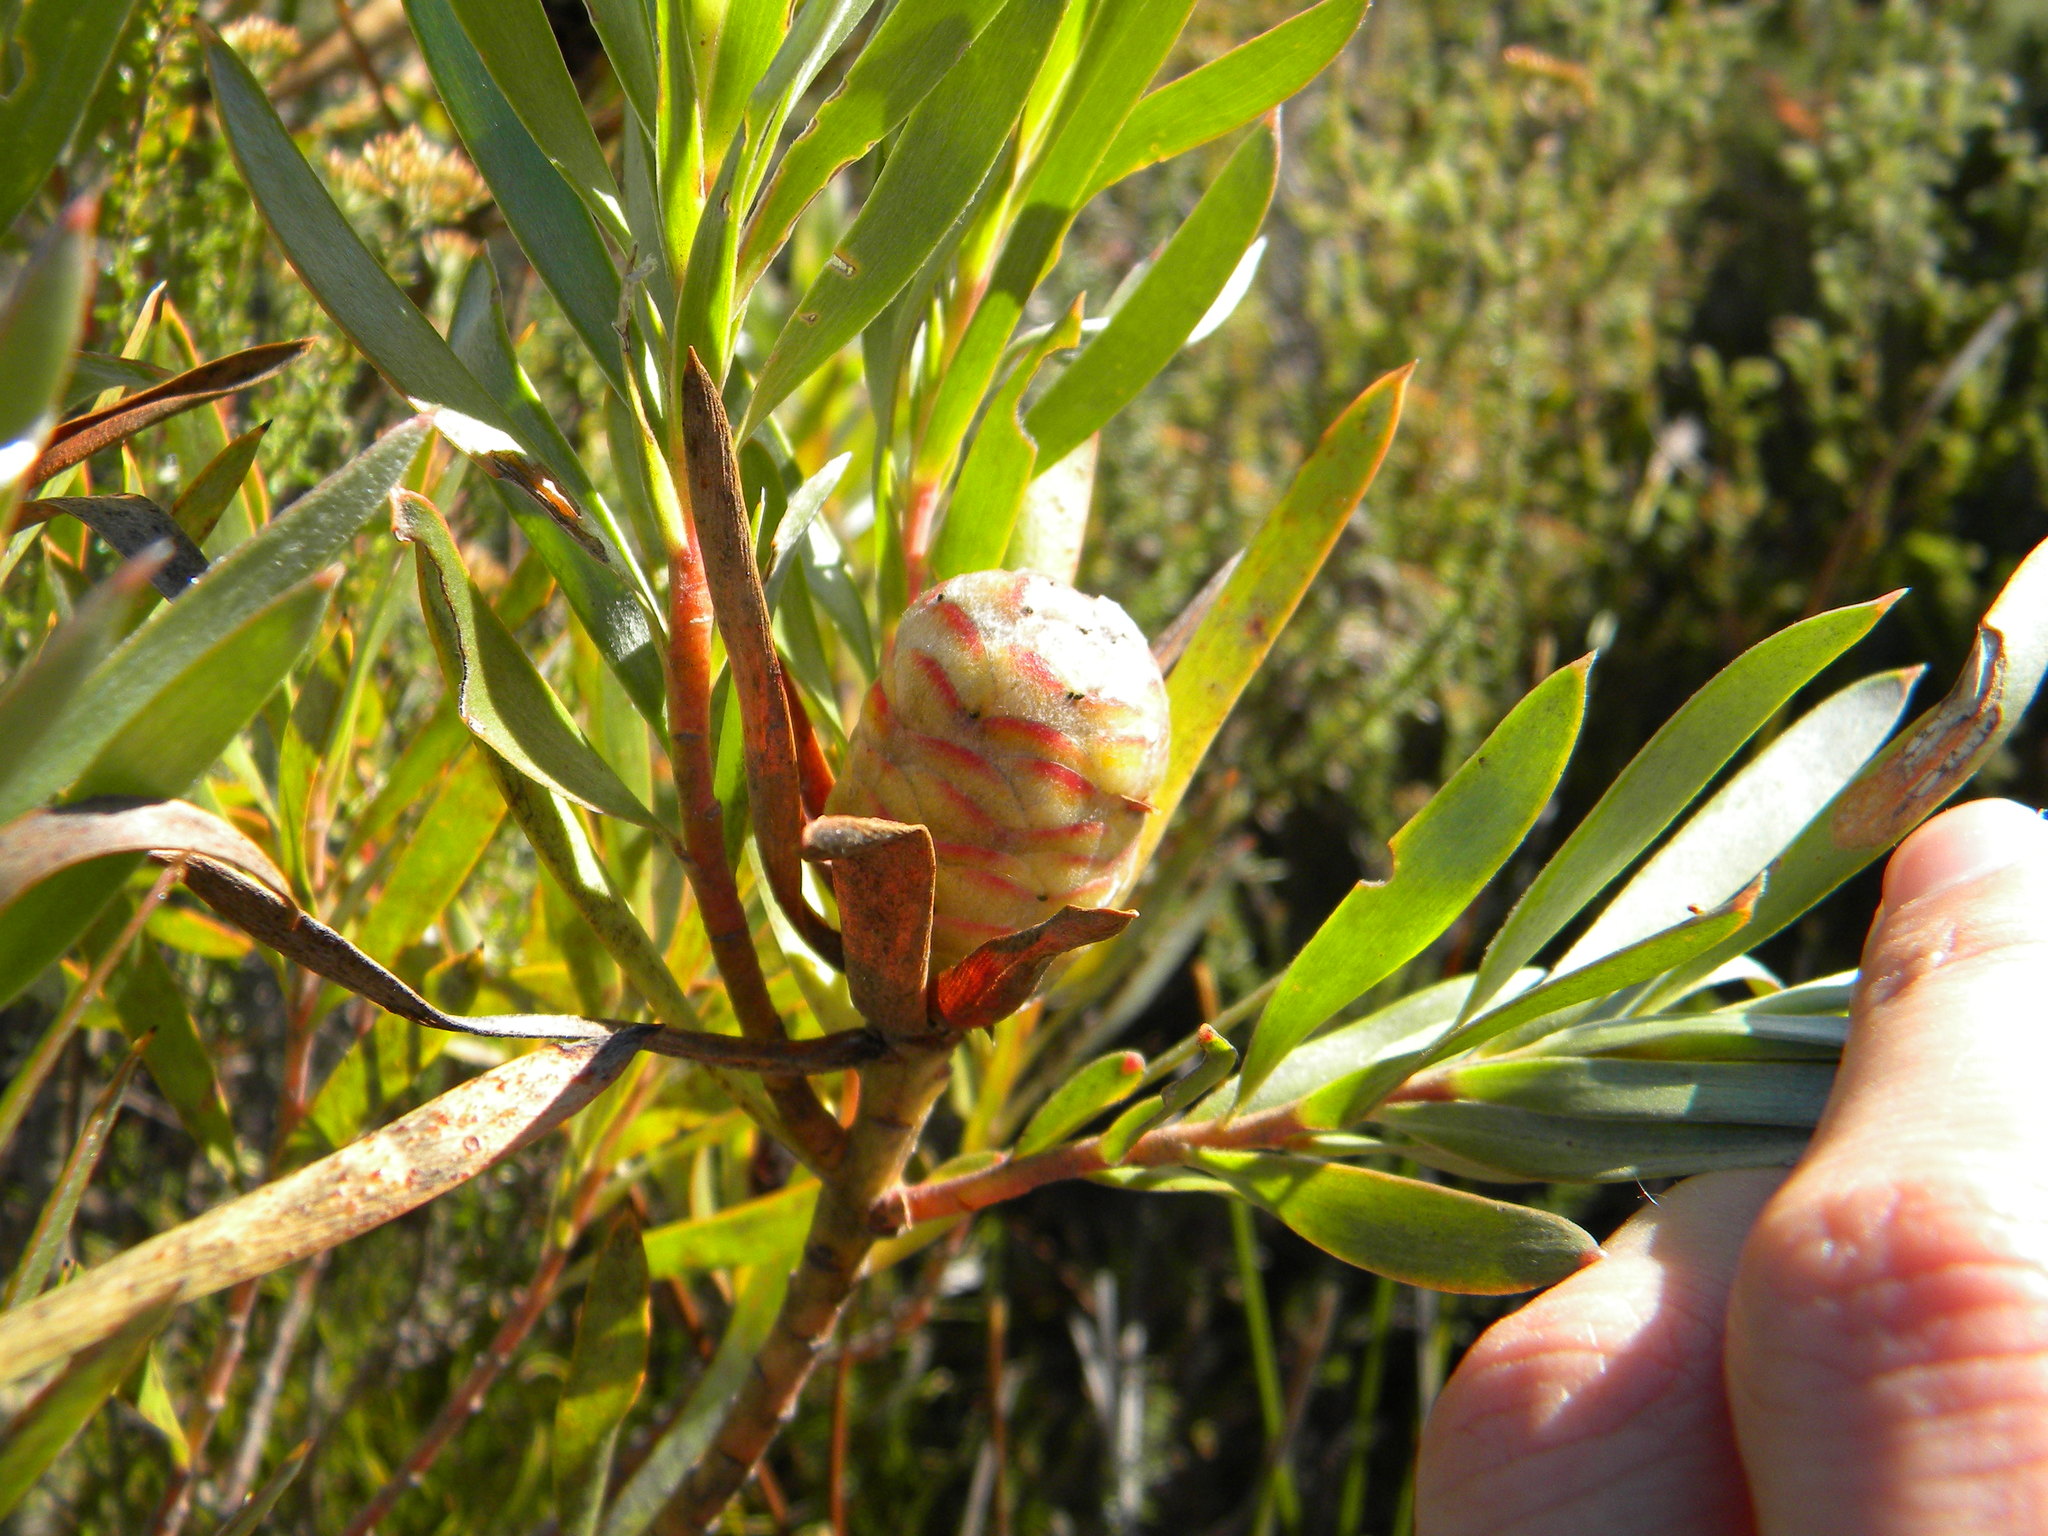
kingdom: Plantae
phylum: Tracheophyta
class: Magnoliopsida
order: Proteales
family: Proteaceae
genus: Leucadendron
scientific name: Leucadendron xanthoconus
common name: Sickle-leaf conebush
